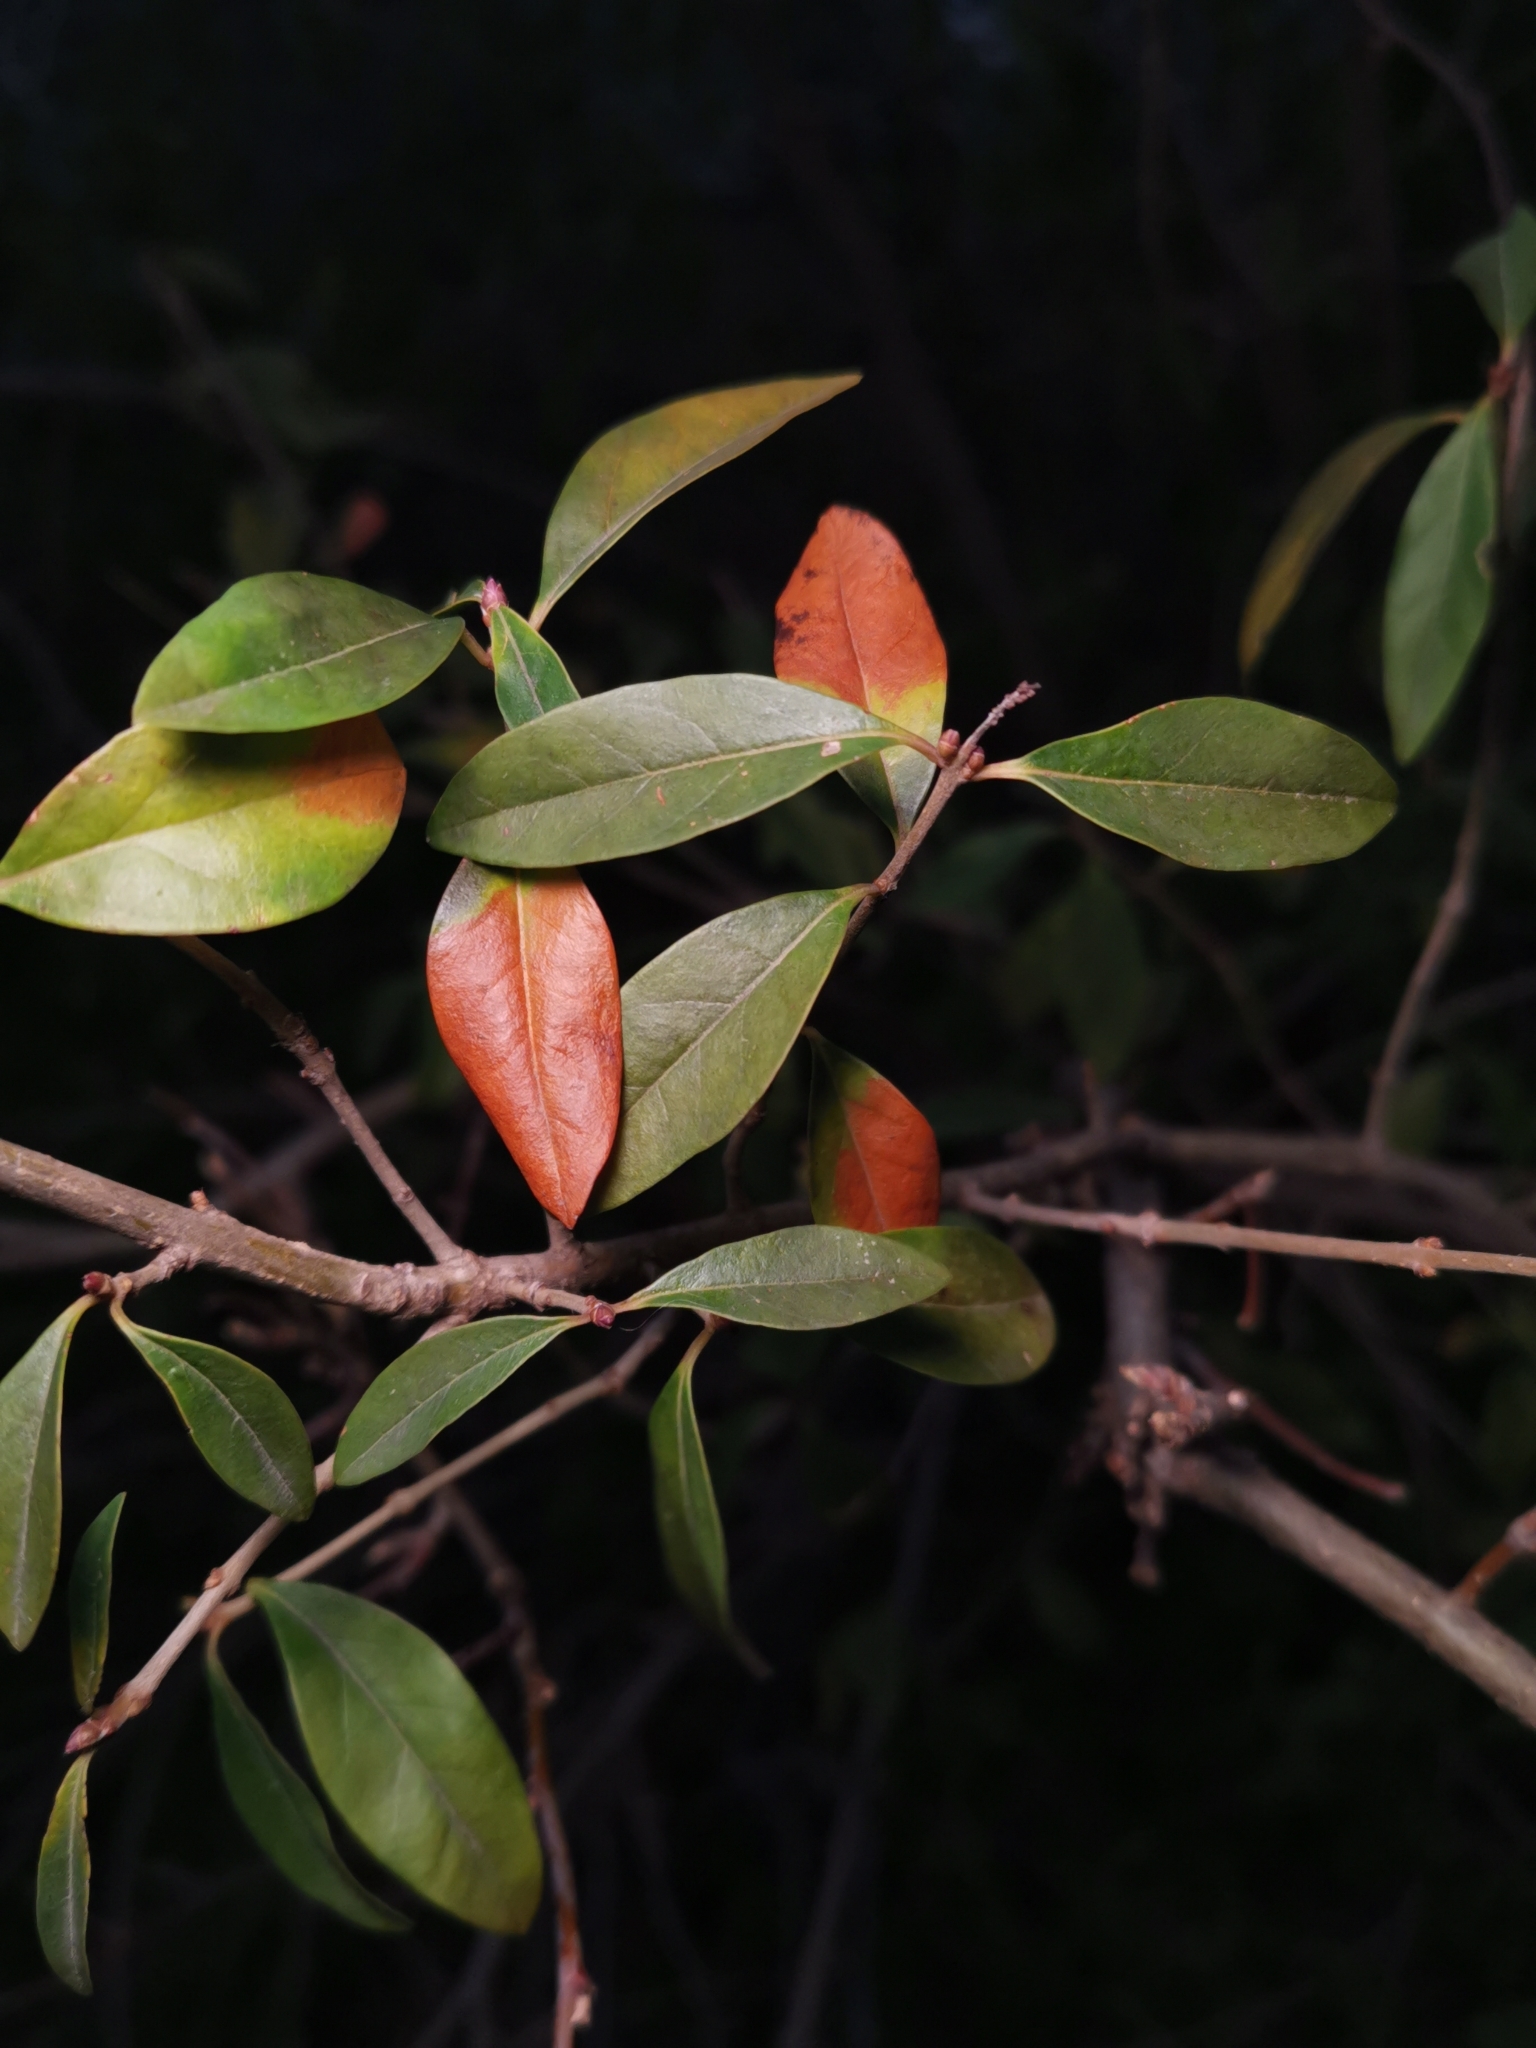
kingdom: Plantae
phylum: Tracheophyta
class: Magnoliopsida
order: Lamiales
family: Oleaceae
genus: Ligustrum
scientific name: Ligustrum vulgare
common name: Wild privet
